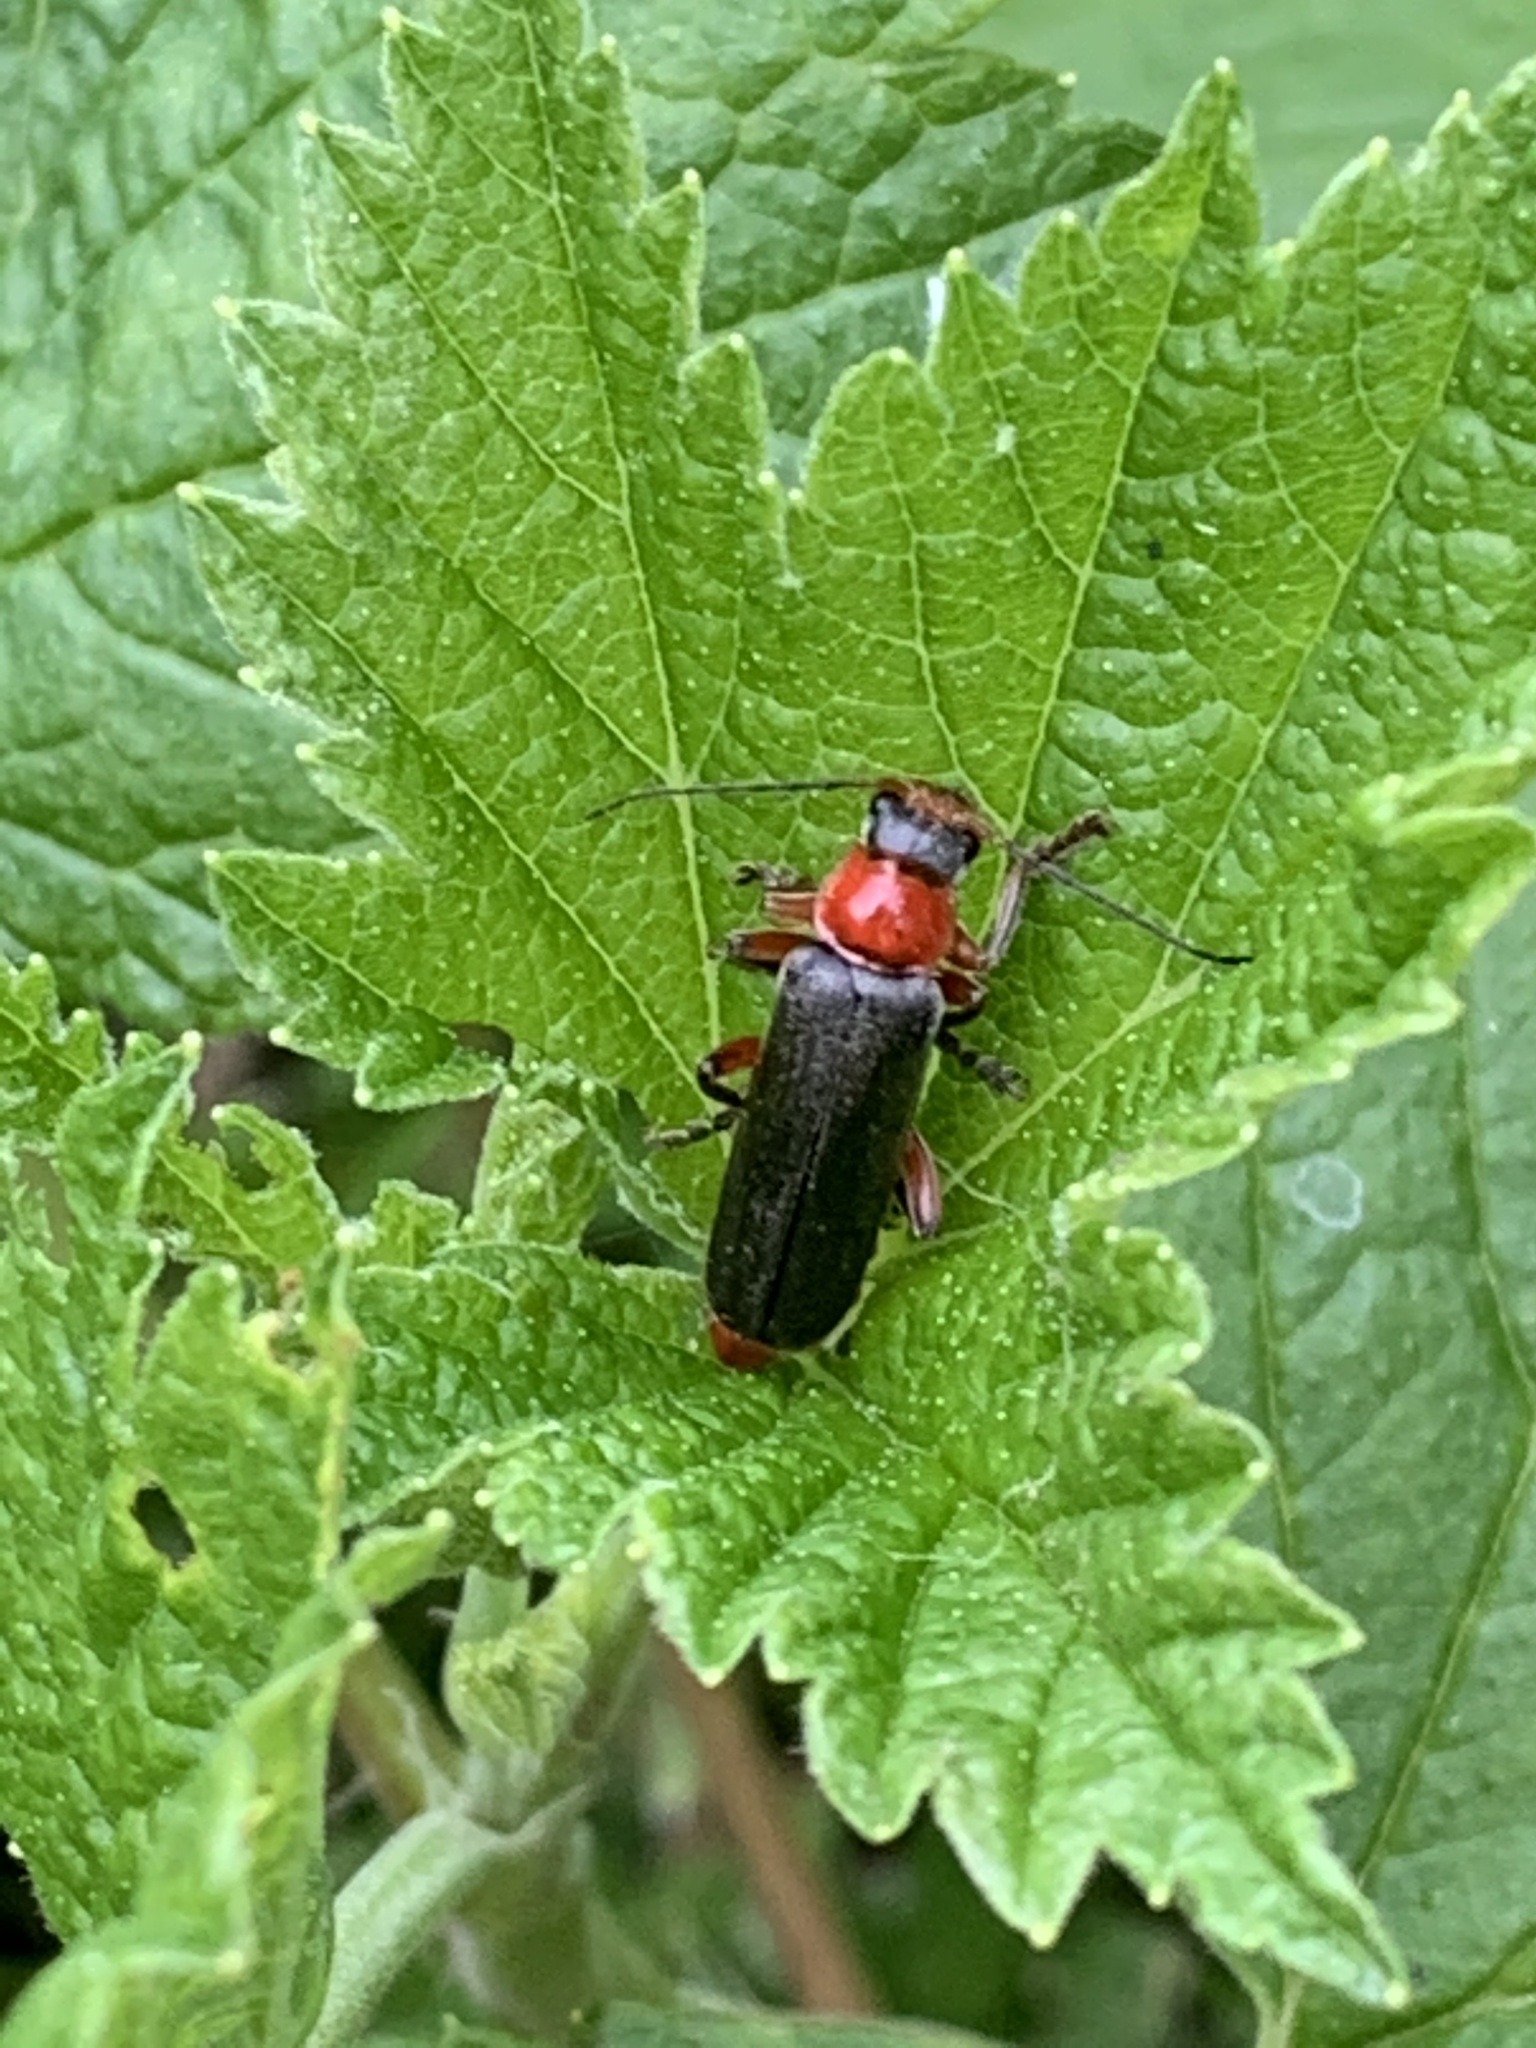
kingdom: Animalia
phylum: Arthropoda
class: Insecta
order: Coleoptera
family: Cantharidae
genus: Cantharis
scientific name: Cantharis pellucida
